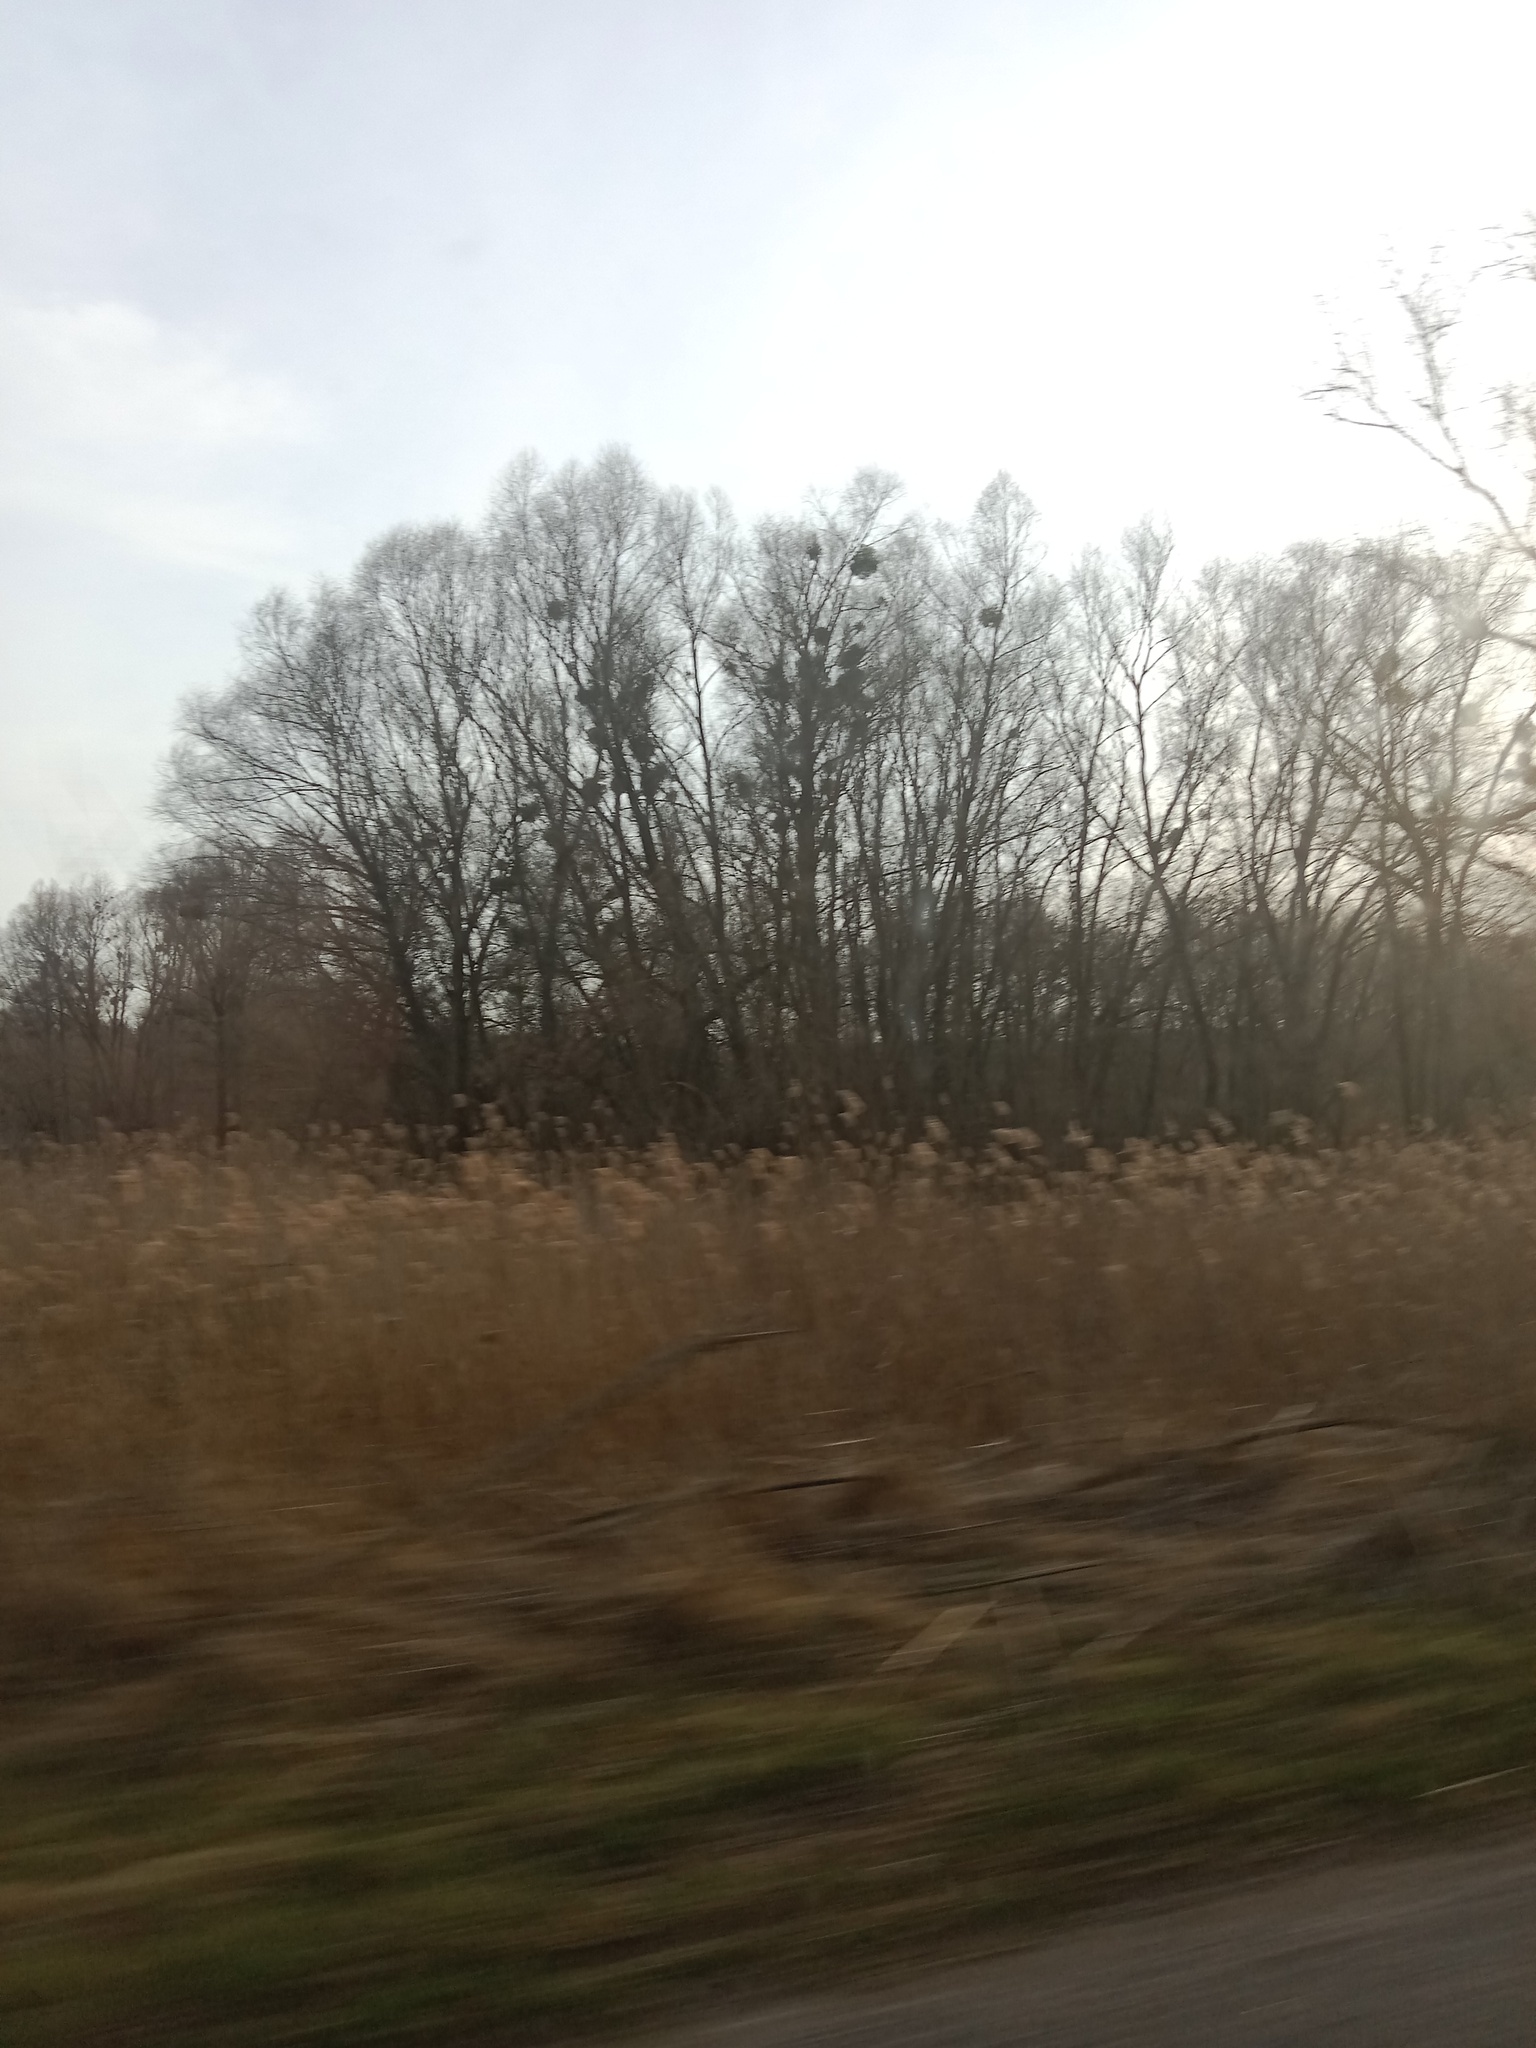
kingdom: Plantae
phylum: Tracheophyta
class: Magnoliopsida
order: Santalales
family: Viscaceae
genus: Viscum
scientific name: Viscum album
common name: Mistletoe
